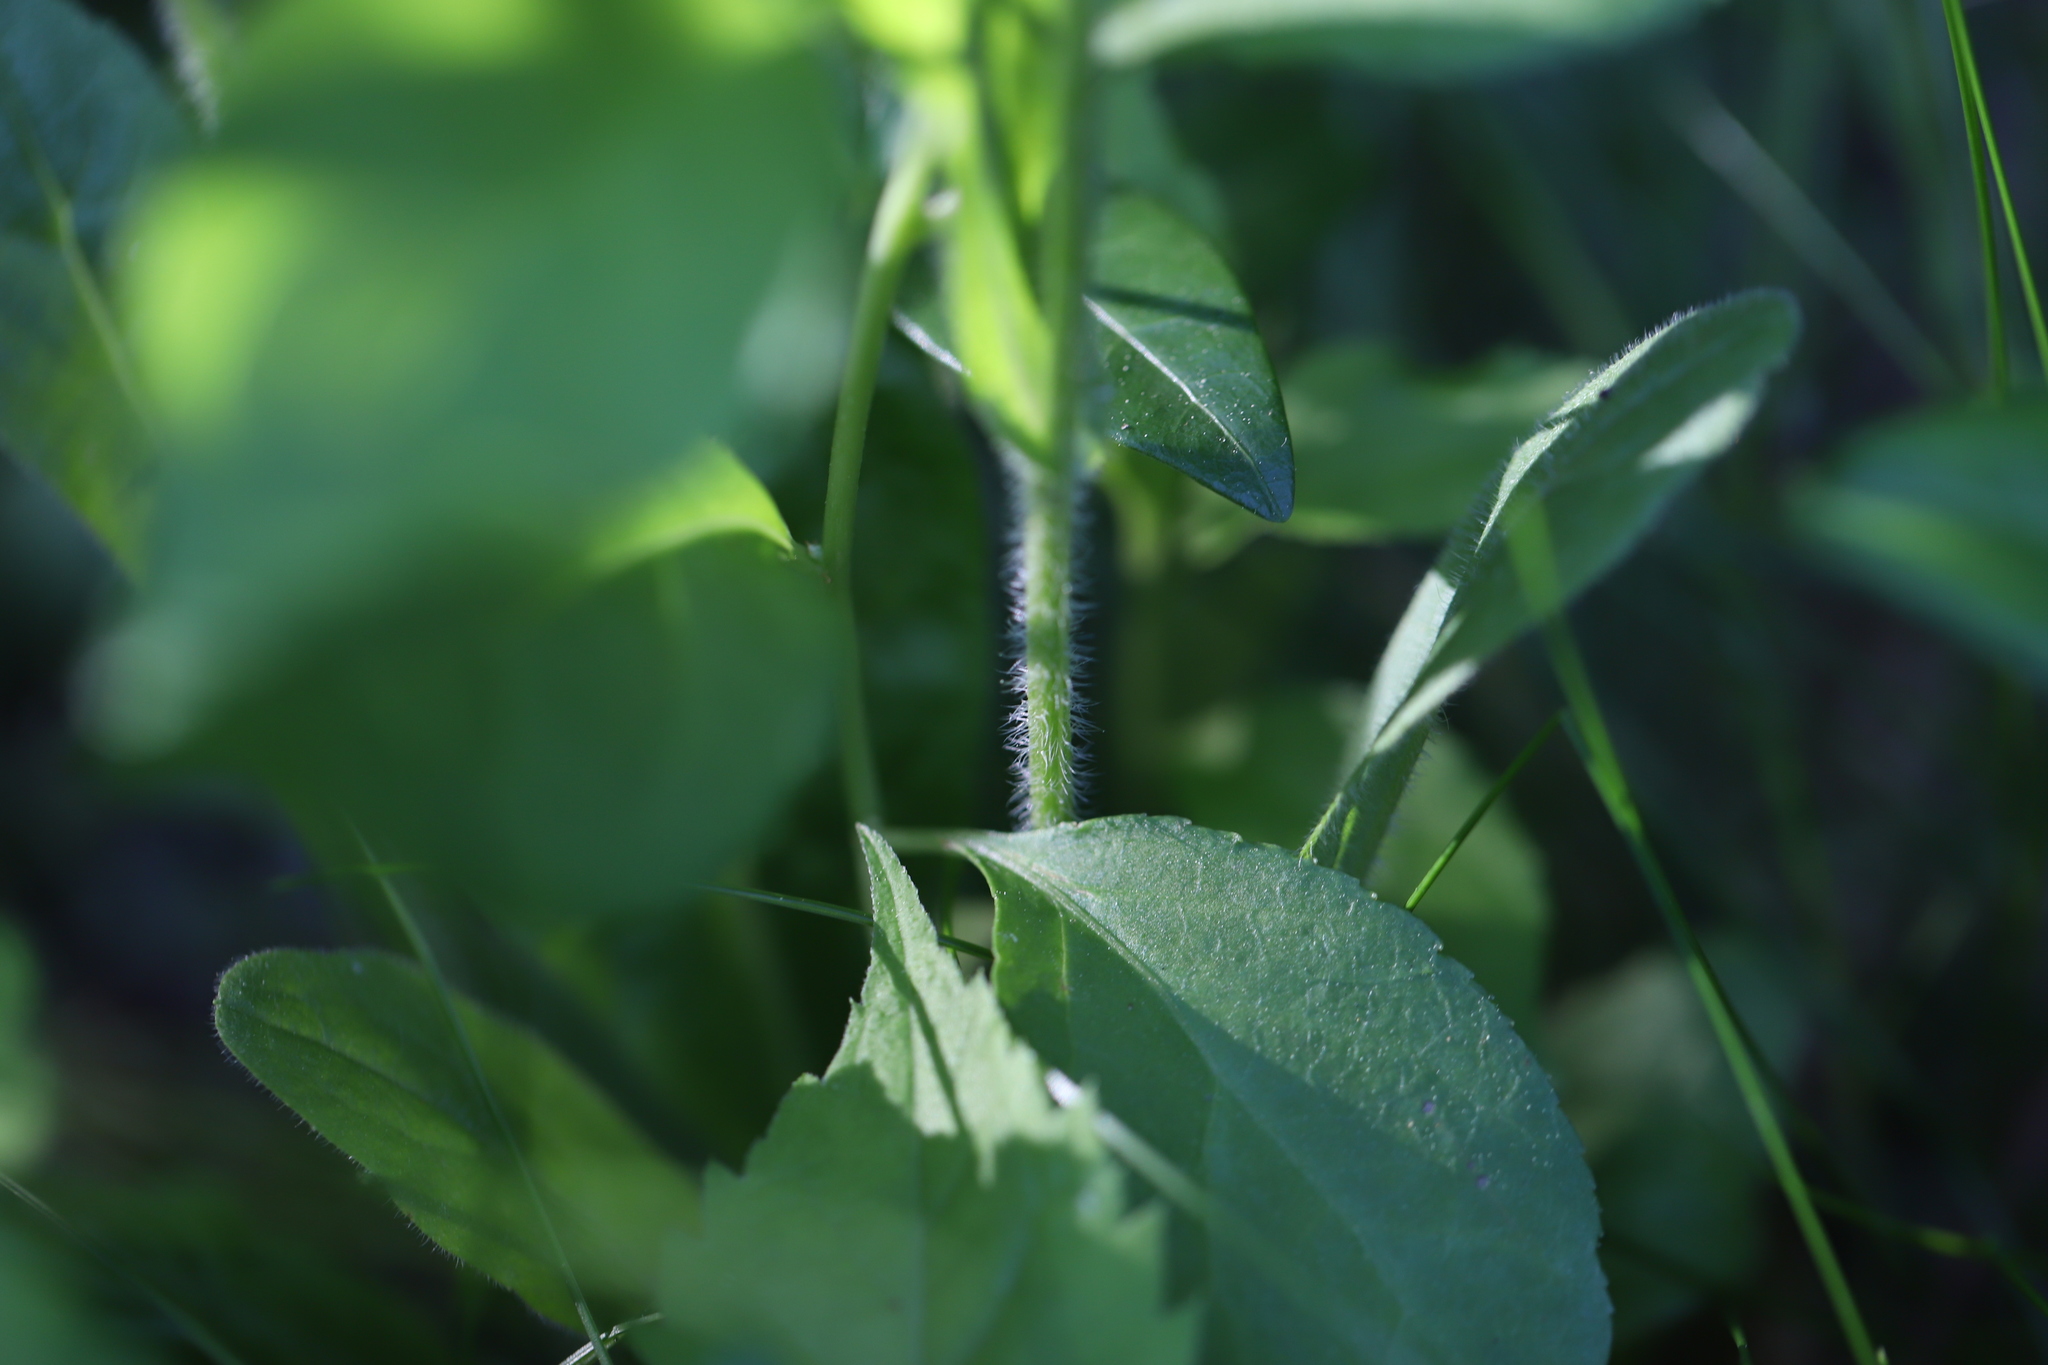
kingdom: Plantae
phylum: Tracheophyta
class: Magnoliopsida
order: Asterales
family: Asteraceae
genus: Erigeron
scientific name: Erigeron philadelphicus
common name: Robin's-plantain
